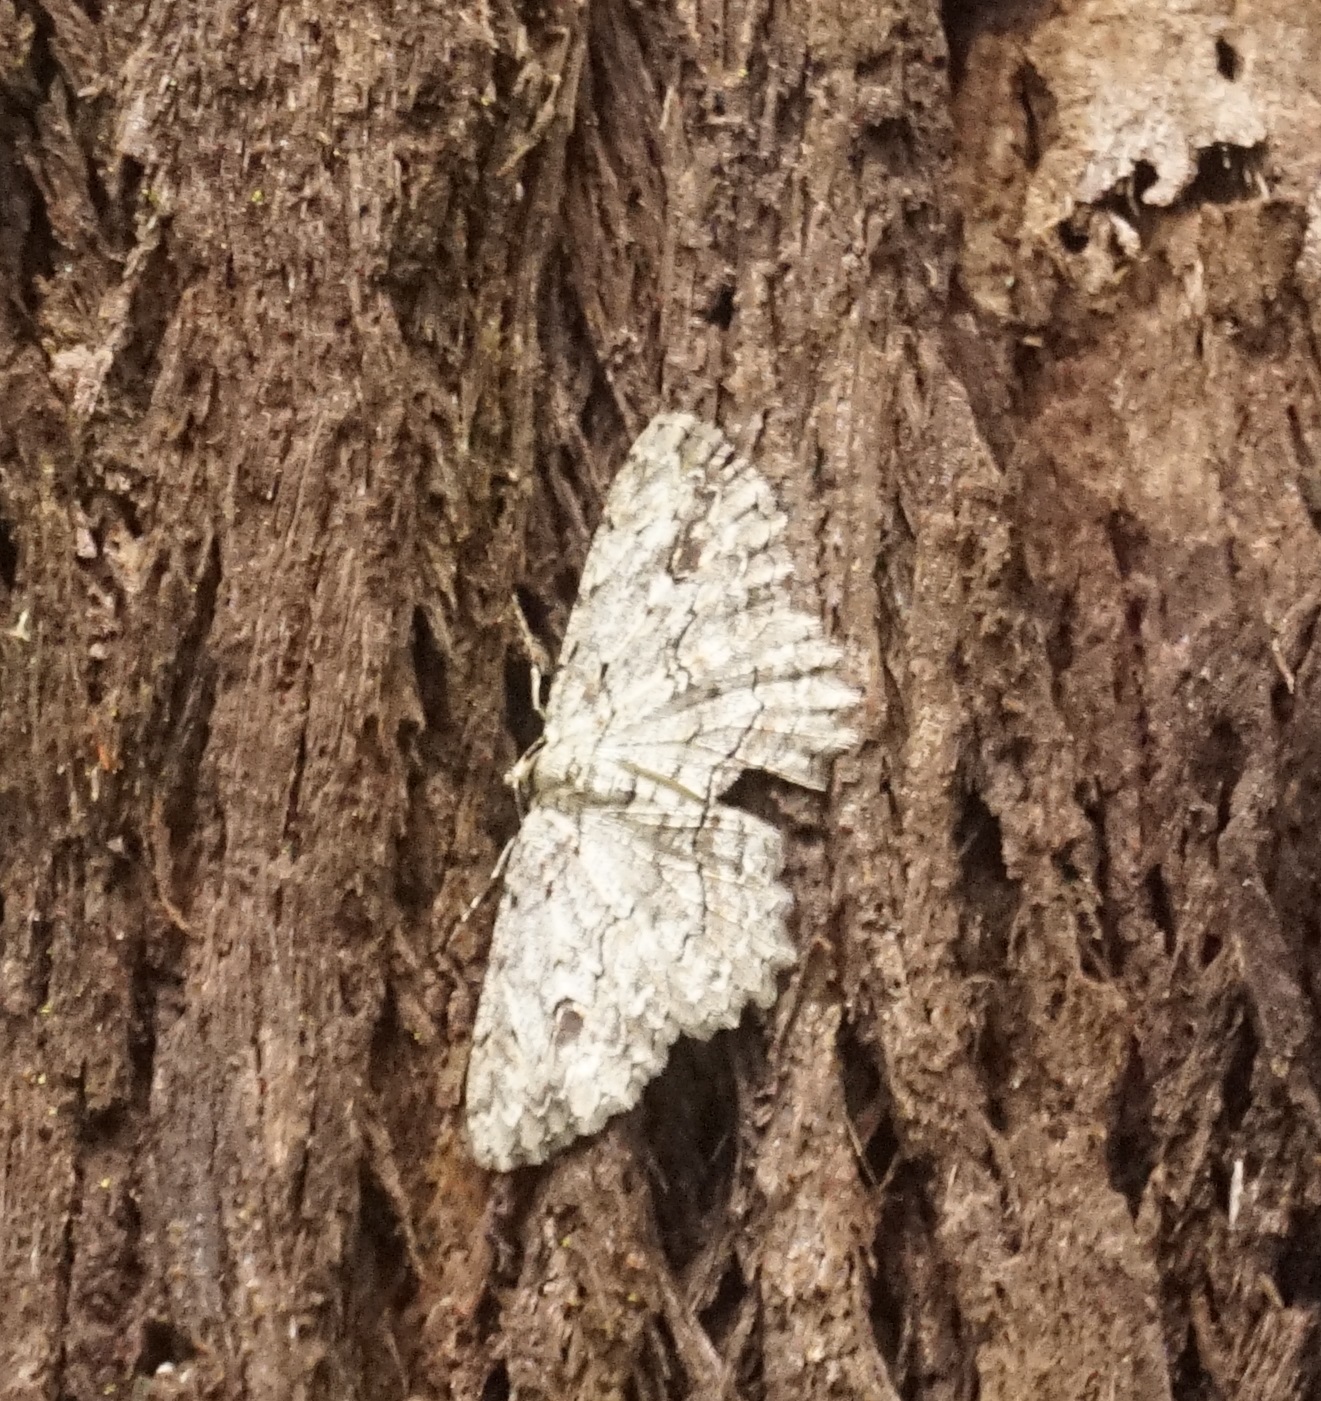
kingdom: Animalia
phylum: Arthropoda
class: Insecta
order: Lepidoptera
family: Geometridae
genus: Ectropis
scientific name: Ectropis bispinaria
